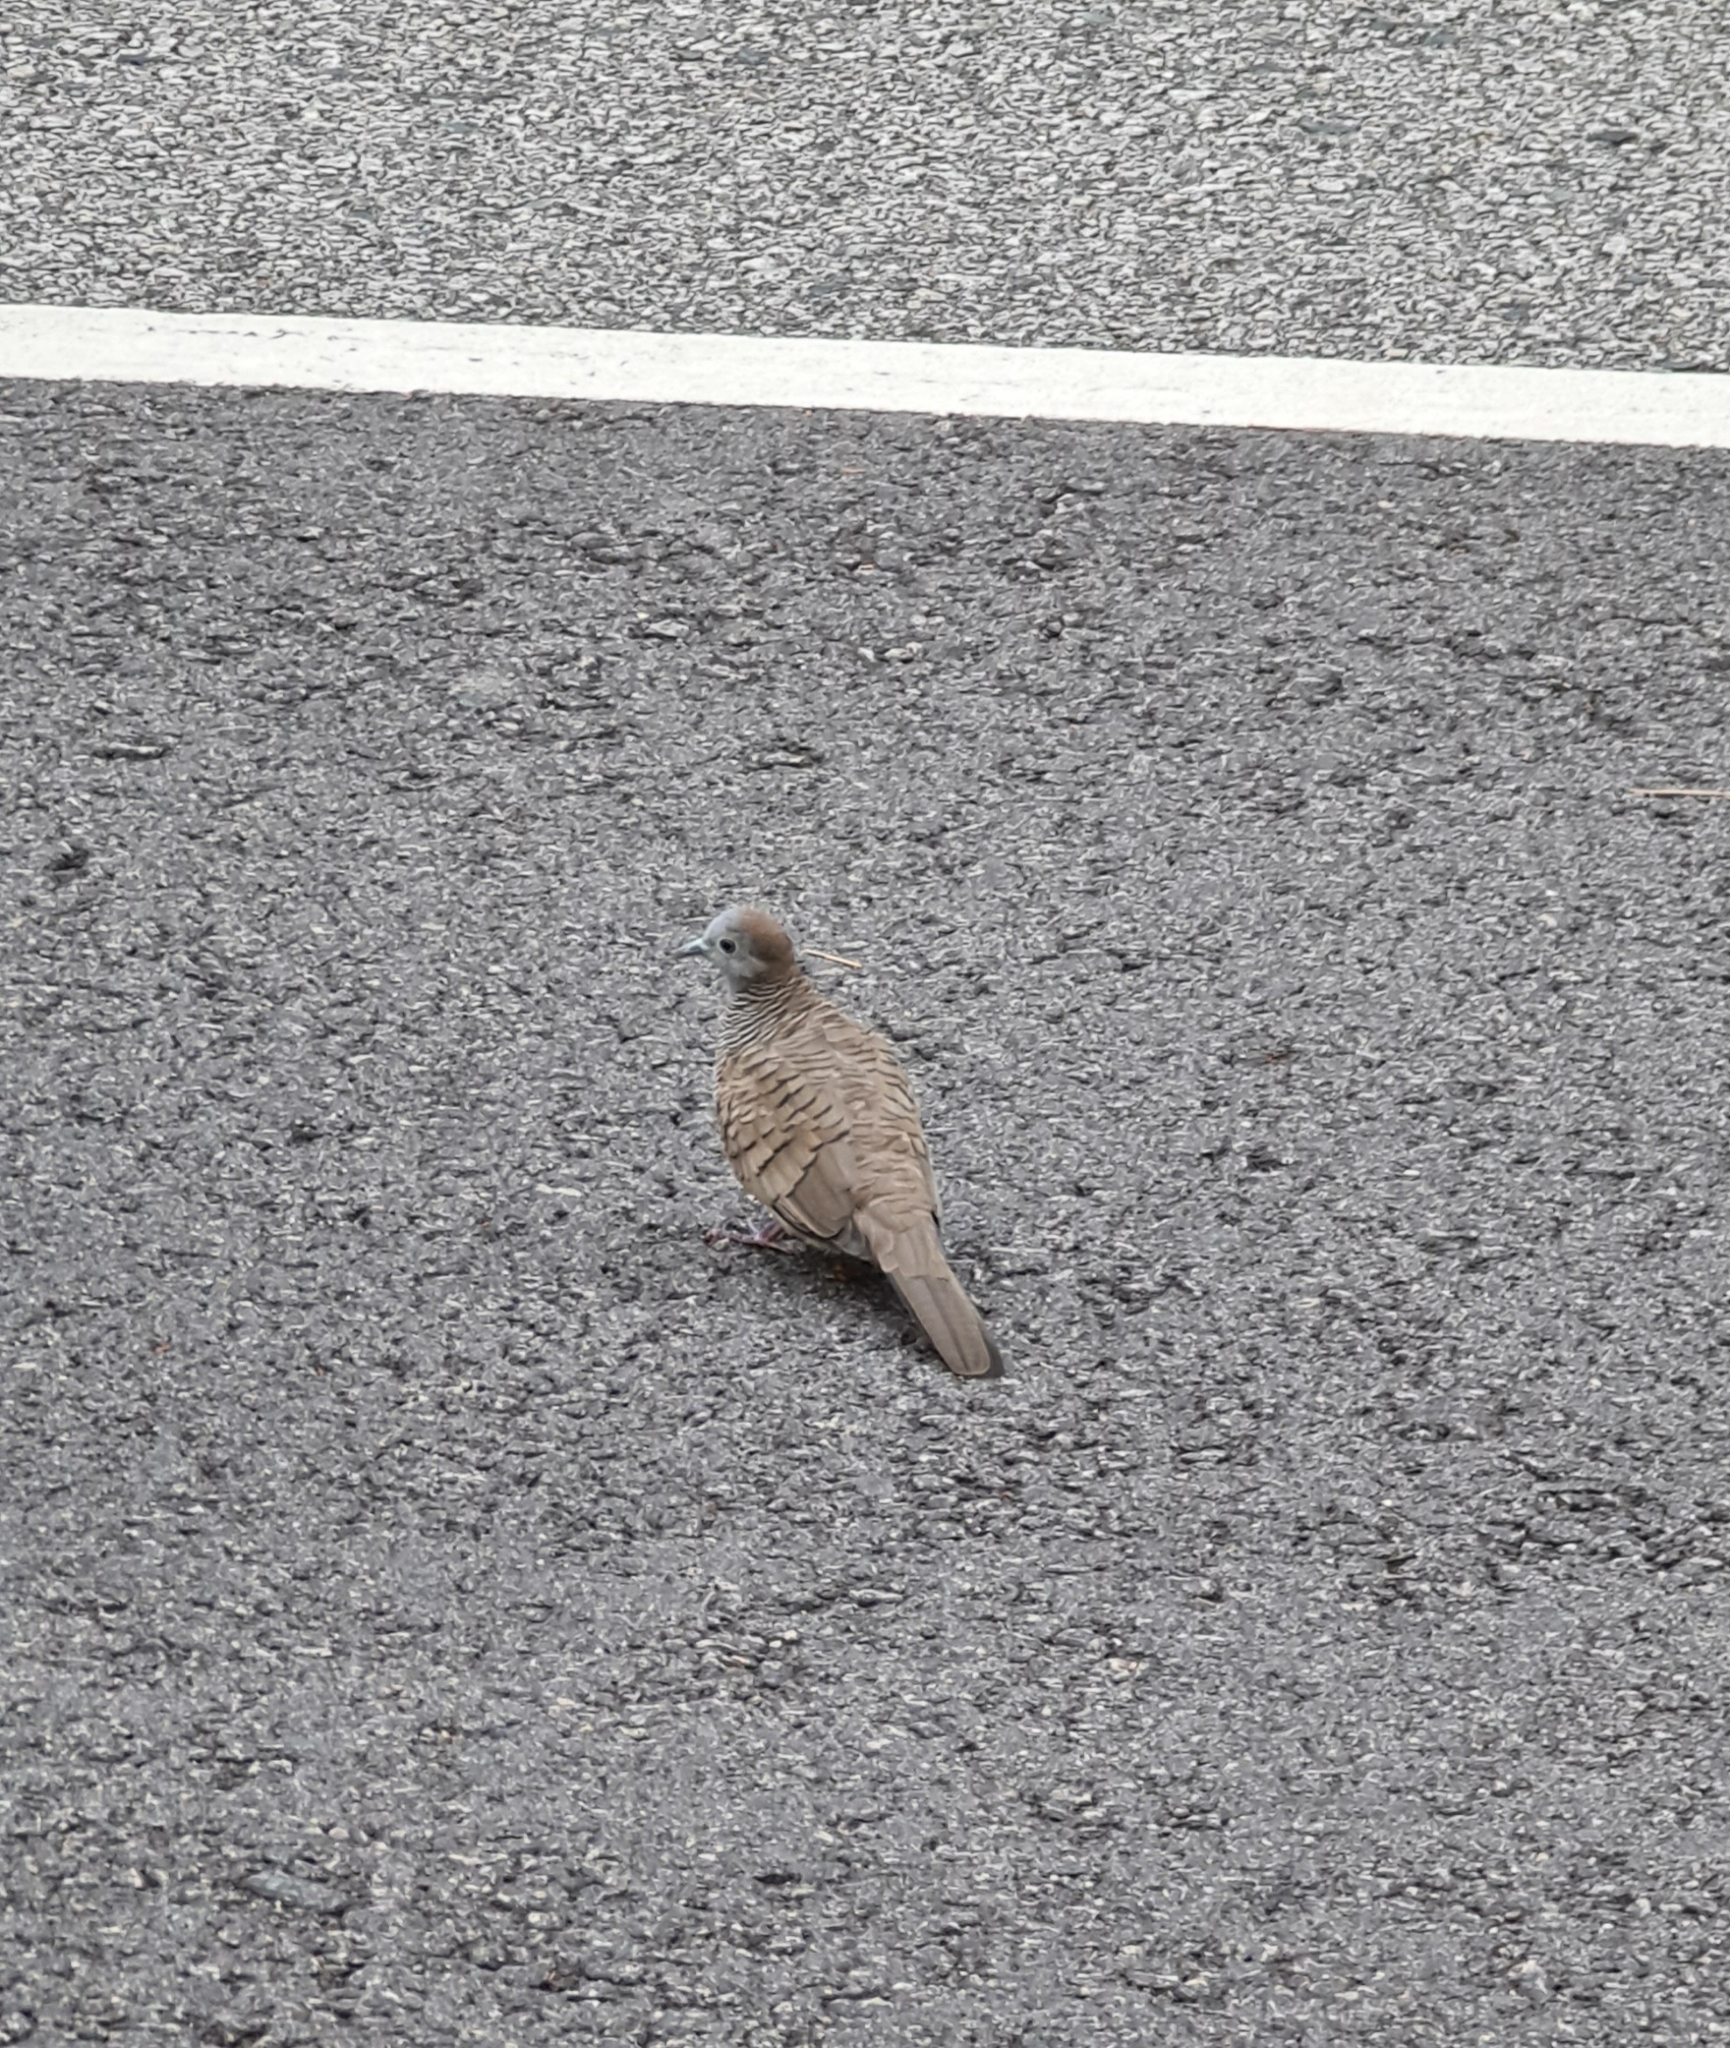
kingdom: Animalia
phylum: Chordata
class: Aves
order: Columbiformes
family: Columbidae
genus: Geopelia
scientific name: Geopelia striata
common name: Zebra dove
